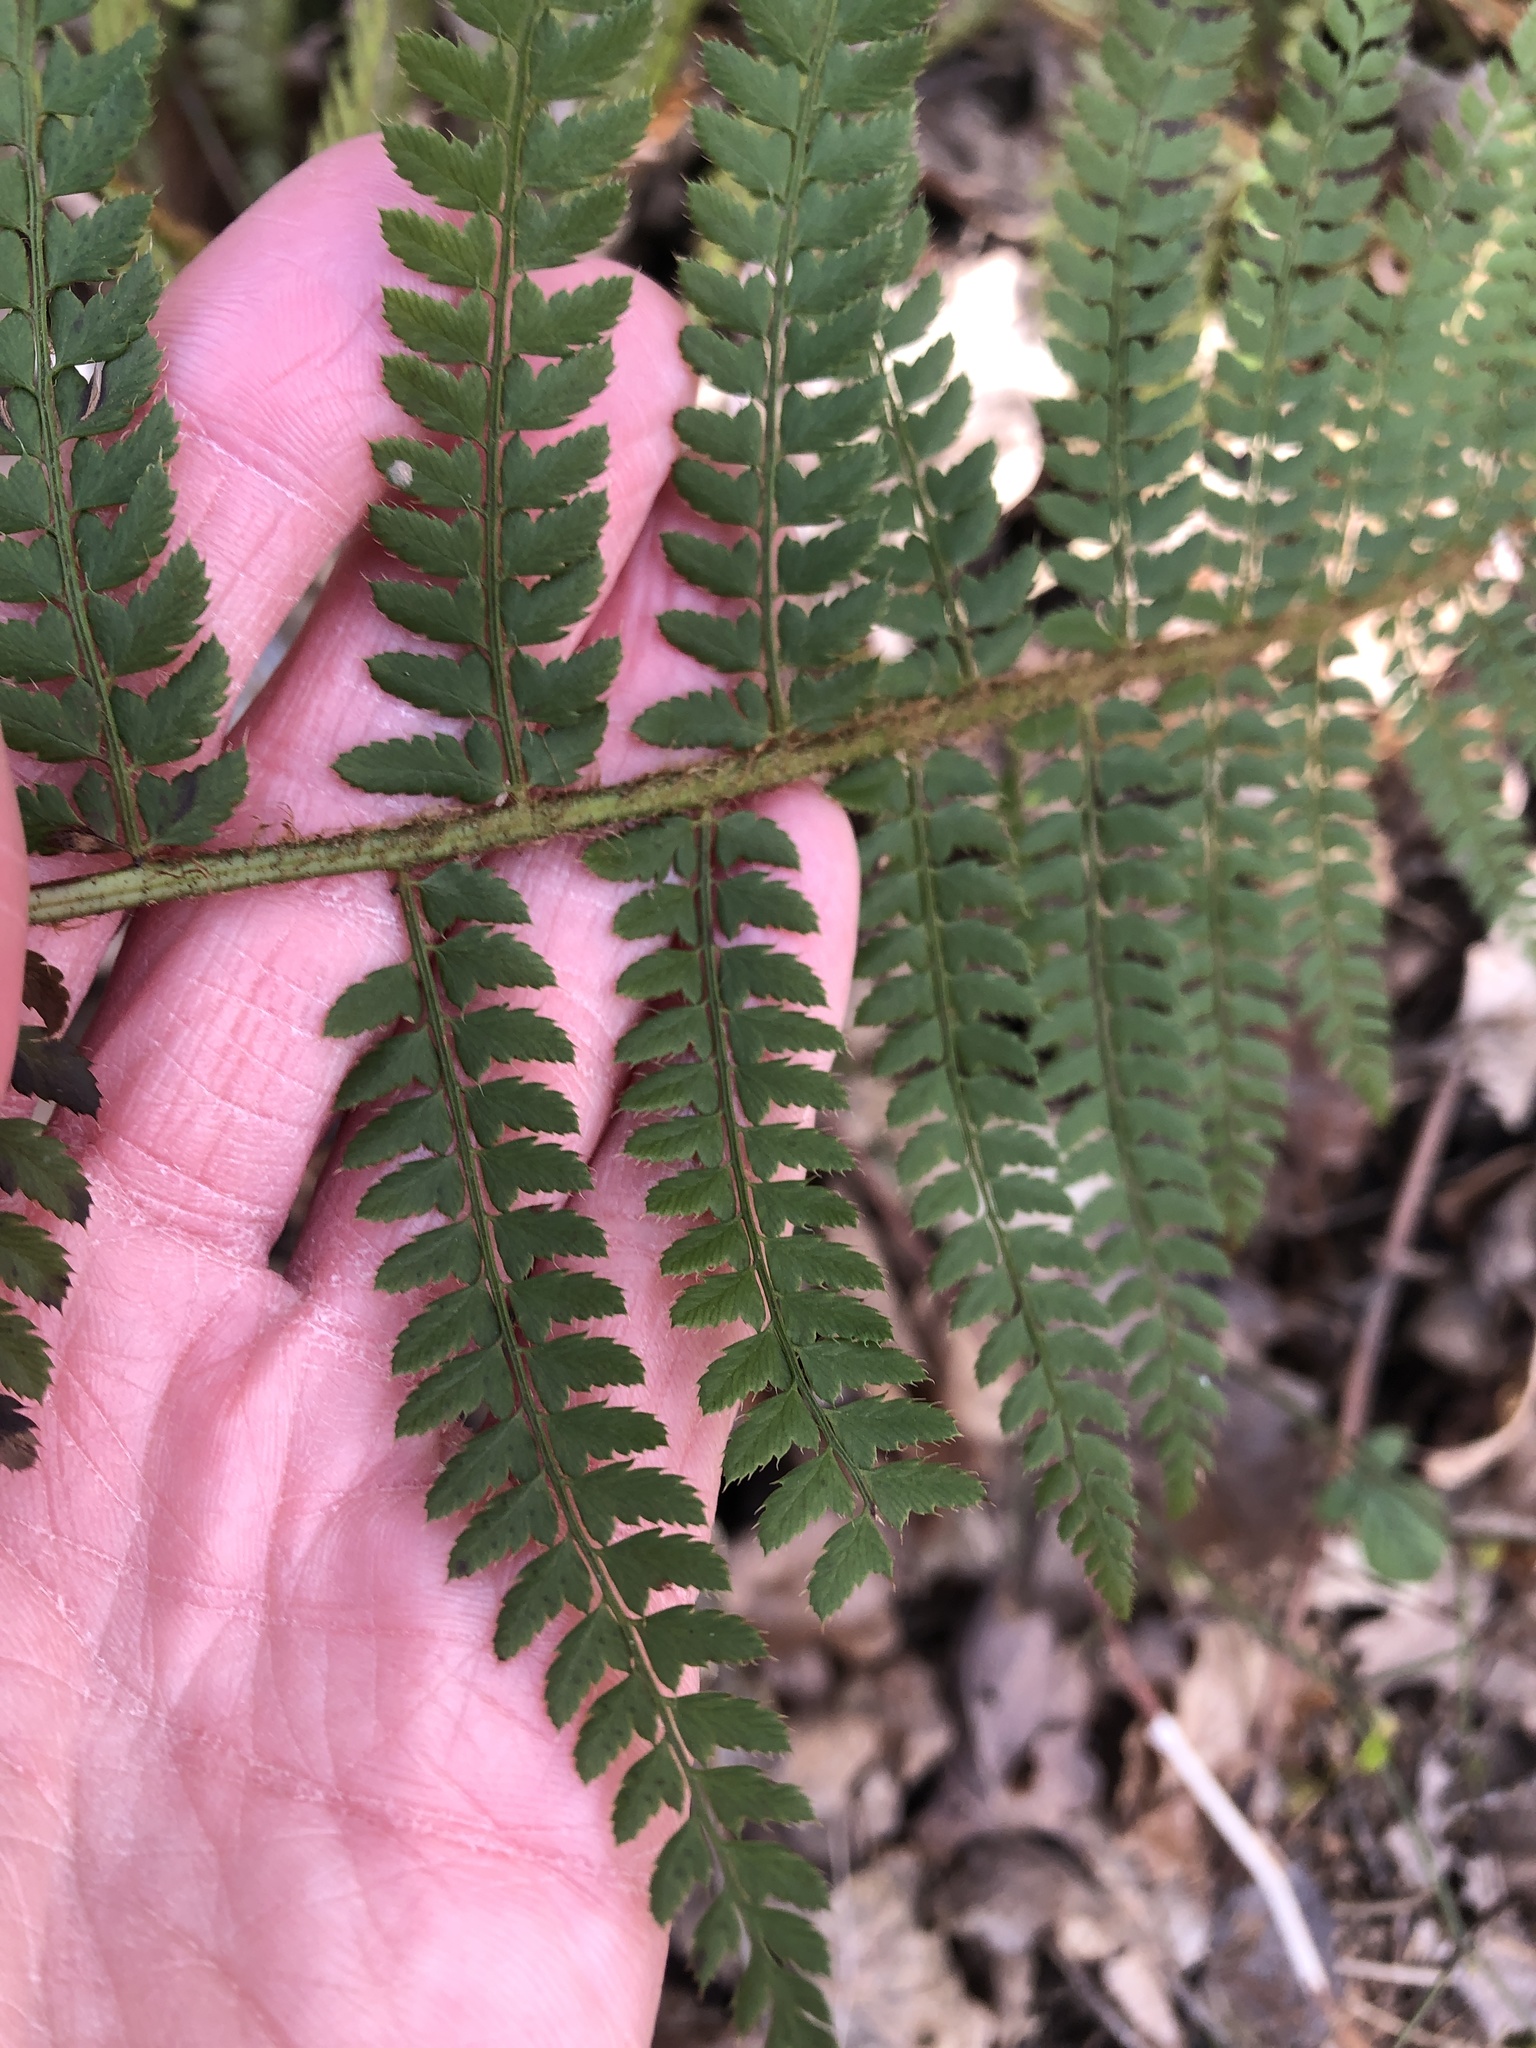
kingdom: Plantae
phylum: Tracheophyta
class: Polypodiopsida
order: Polypodiales
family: Dryopteridaceae
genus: Polystichum
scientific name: Polystichum setiferum
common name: Soft shield-fern
